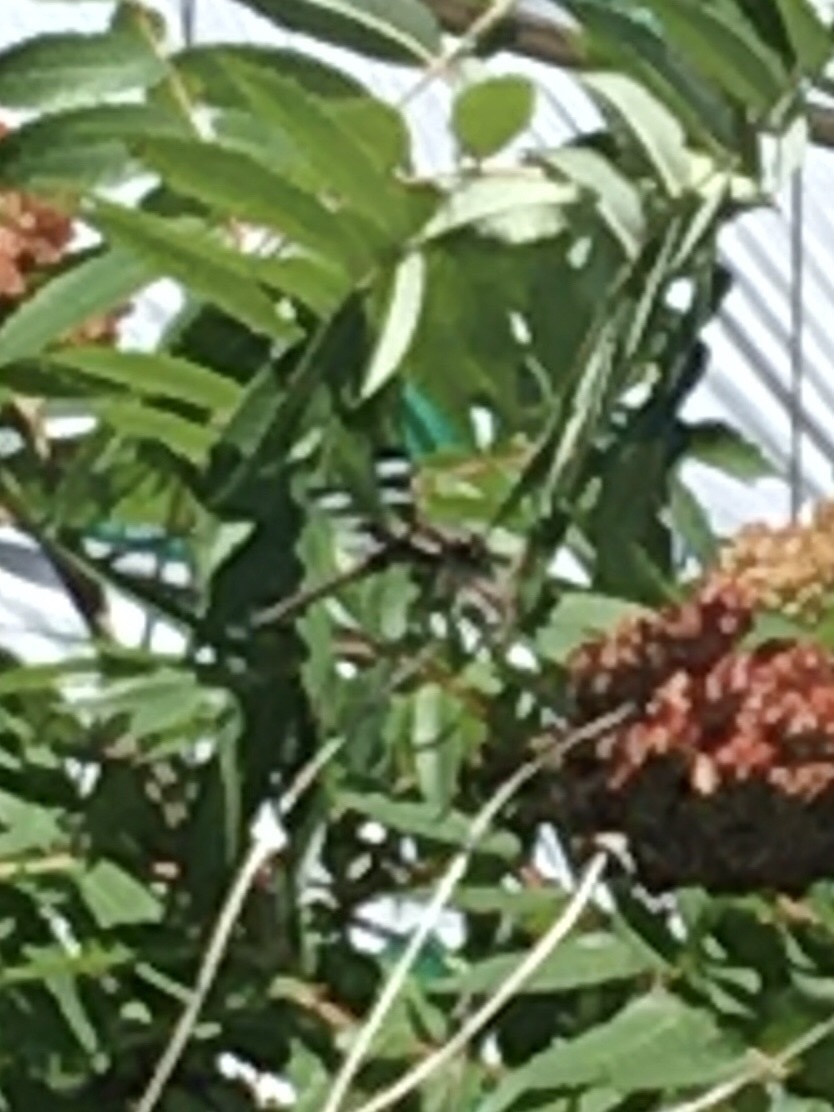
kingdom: Animalia
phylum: Arthropoda
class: Insecta
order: Odonata
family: Libellulidae
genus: Libellula
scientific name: Libellula pulchella
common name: Twelve-spotted skimmer
